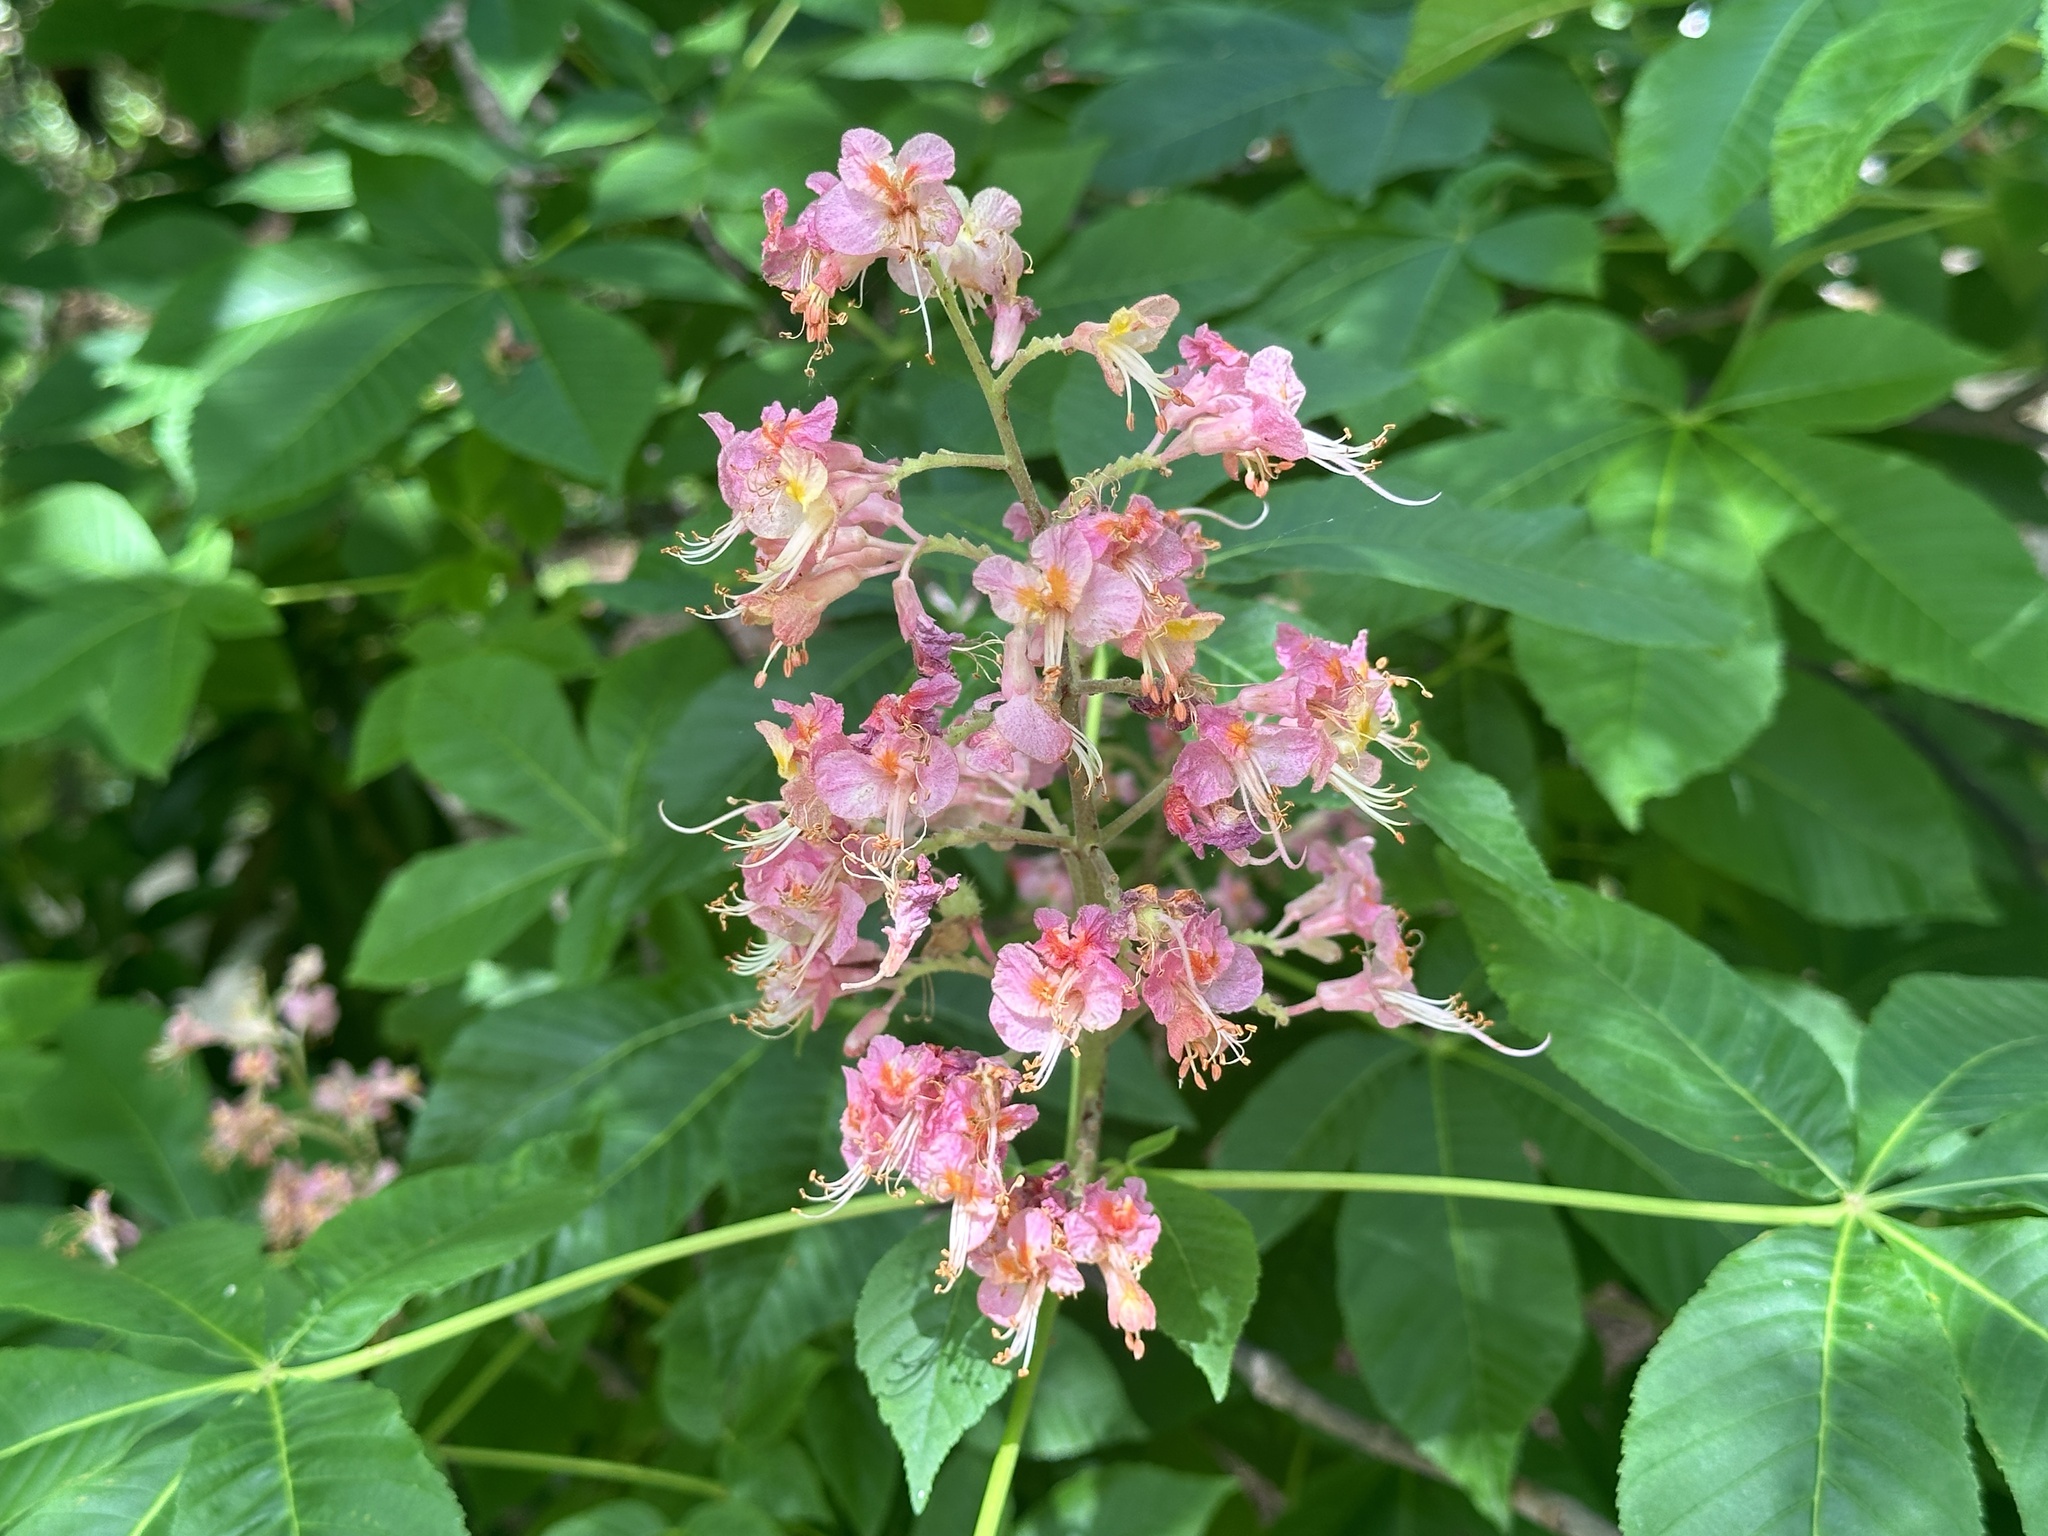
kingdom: Plantae
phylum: Tracheophyta
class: Magnoliopsida
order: Sapindales
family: Sapindaceae
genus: Aesculus
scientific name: Aesculus pavia
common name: Red buckeye
